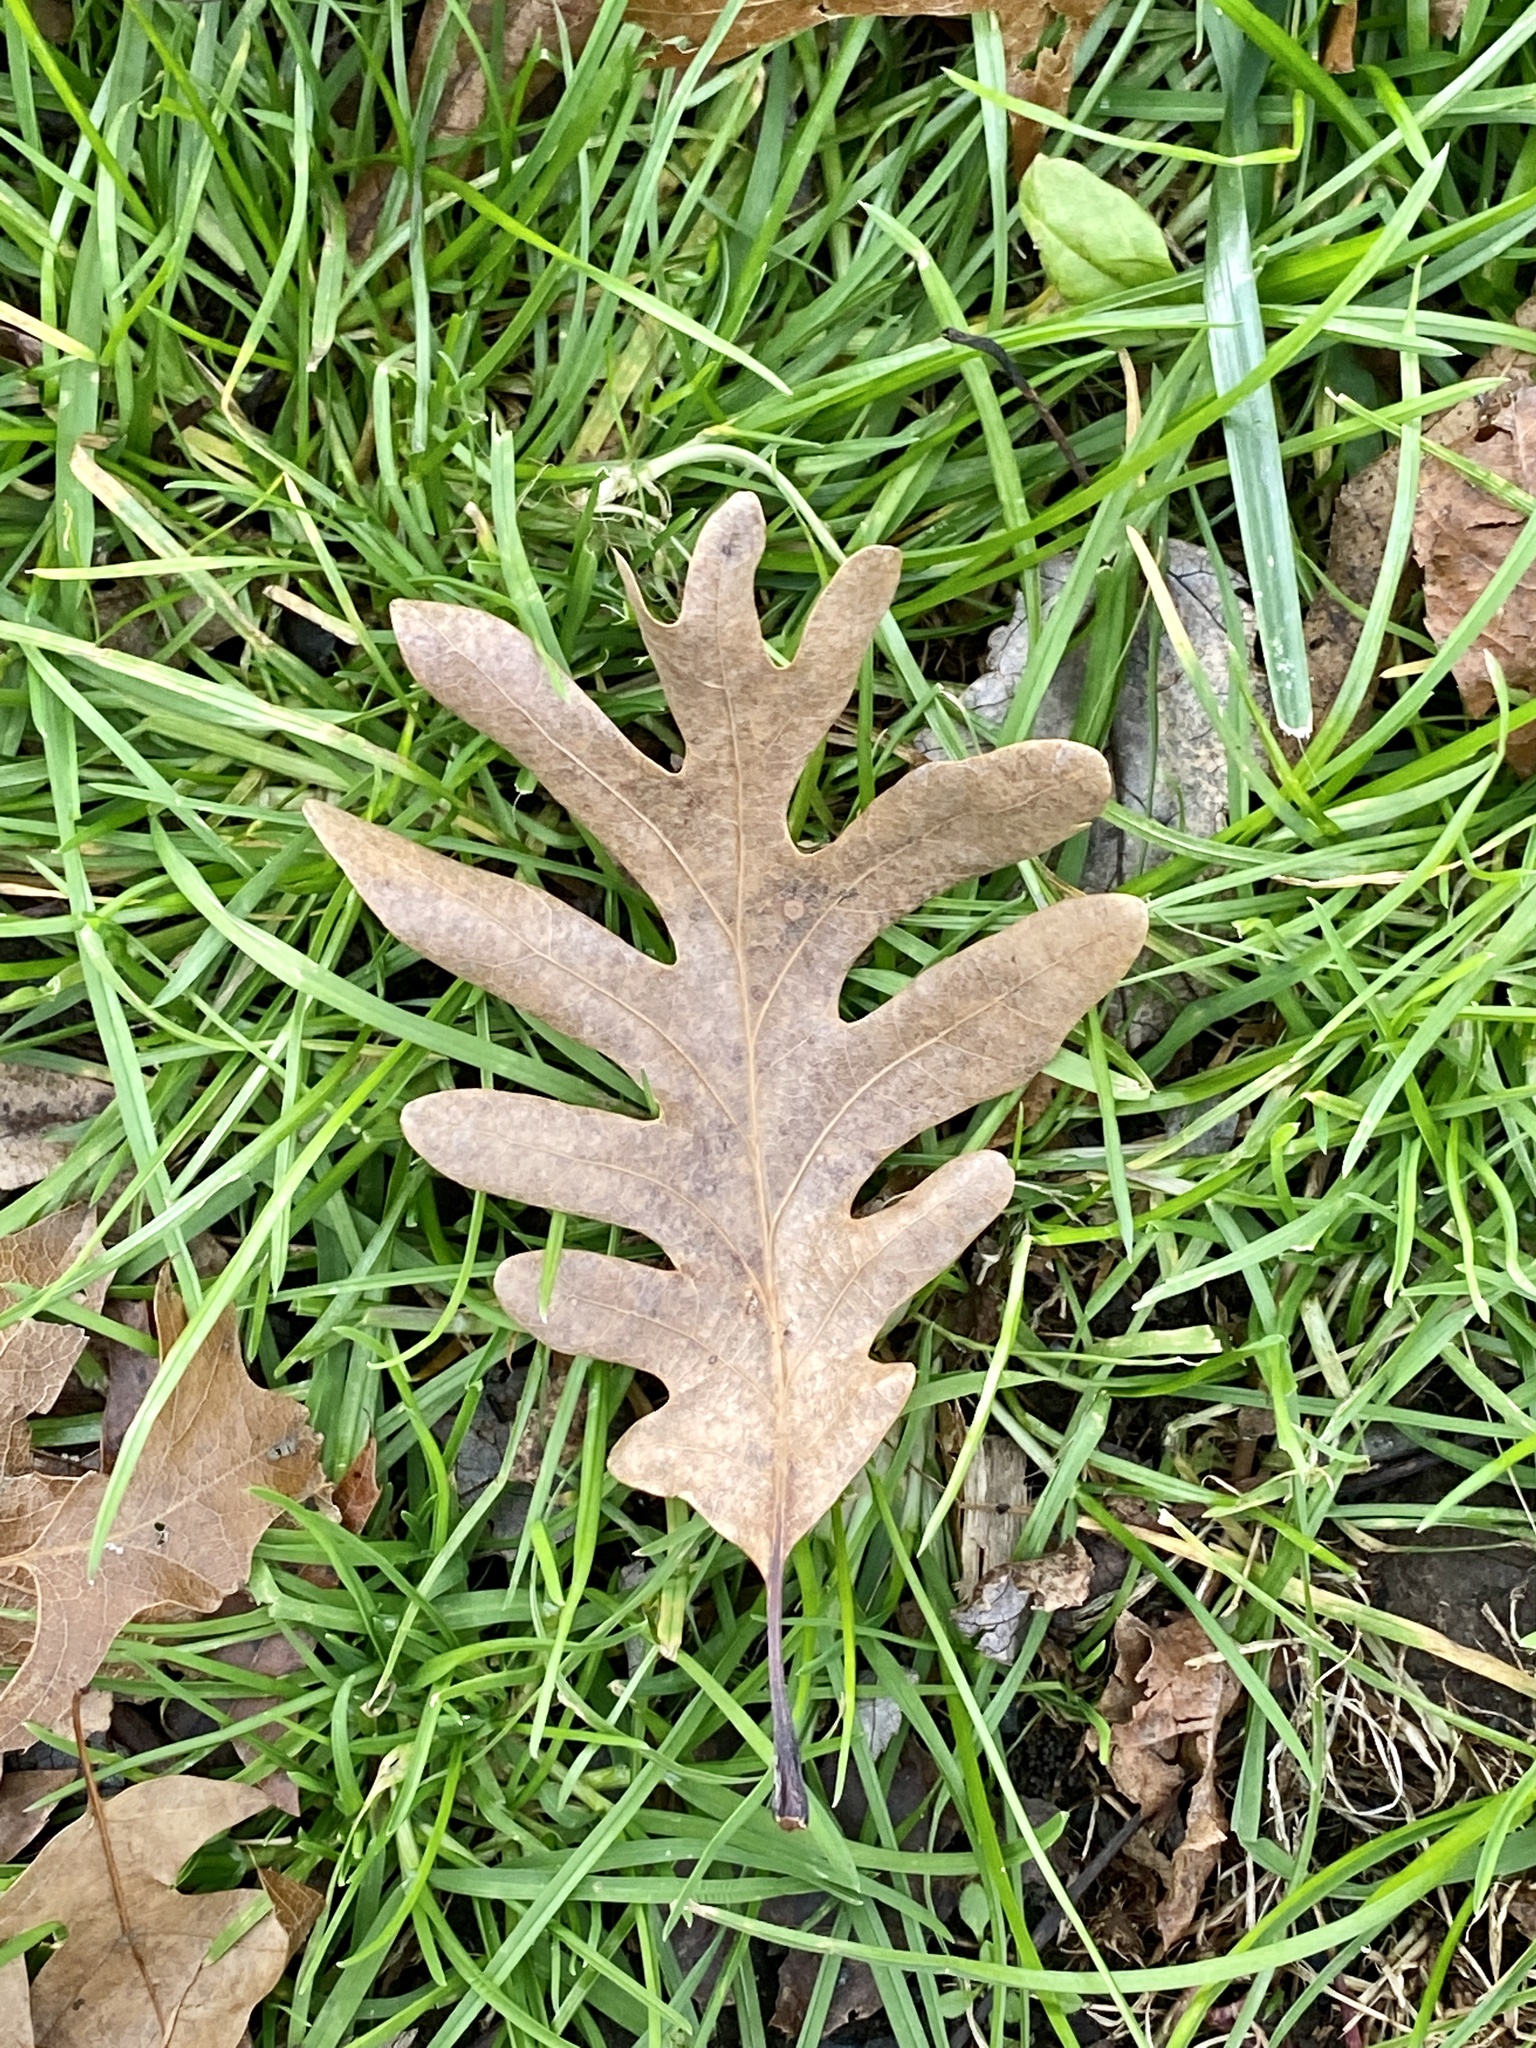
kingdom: Plantae
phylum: Tracheophyta
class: Magnoliopsida
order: Fagales
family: Fagaceae
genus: Quercus
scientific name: Quercus alba
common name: White oak
